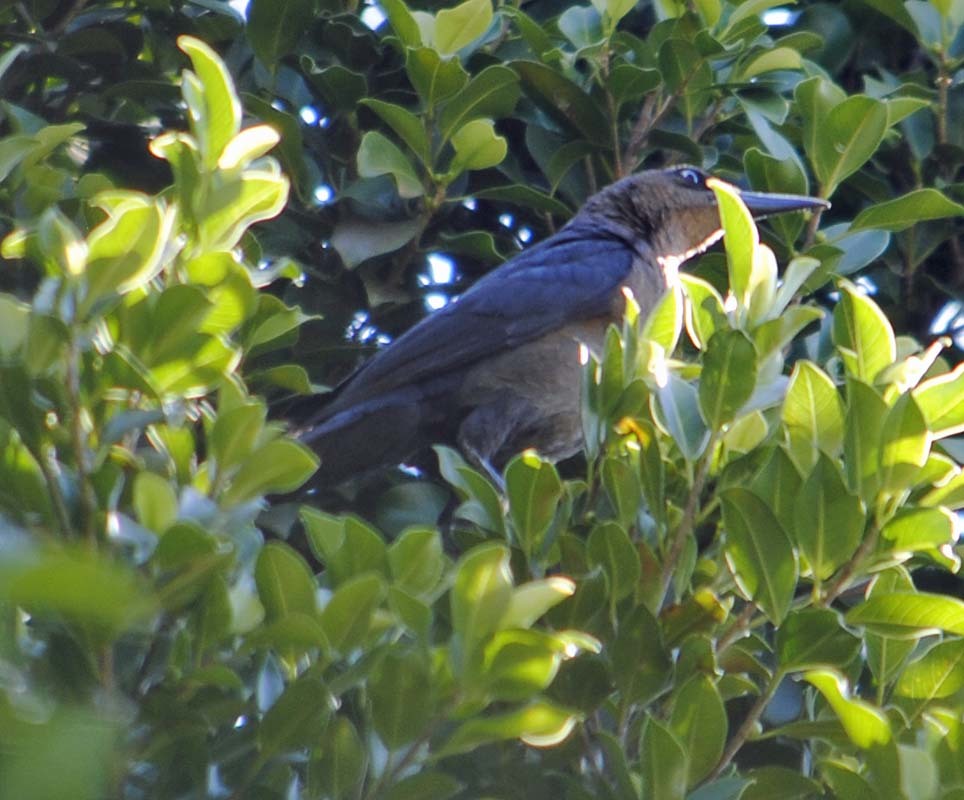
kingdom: Animalia
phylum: Chordata
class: Aves
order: Passeriformes
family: Icteridae
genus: Quiscalus
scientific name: Quiscalus mexicanus
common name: Great-tailed grackle
